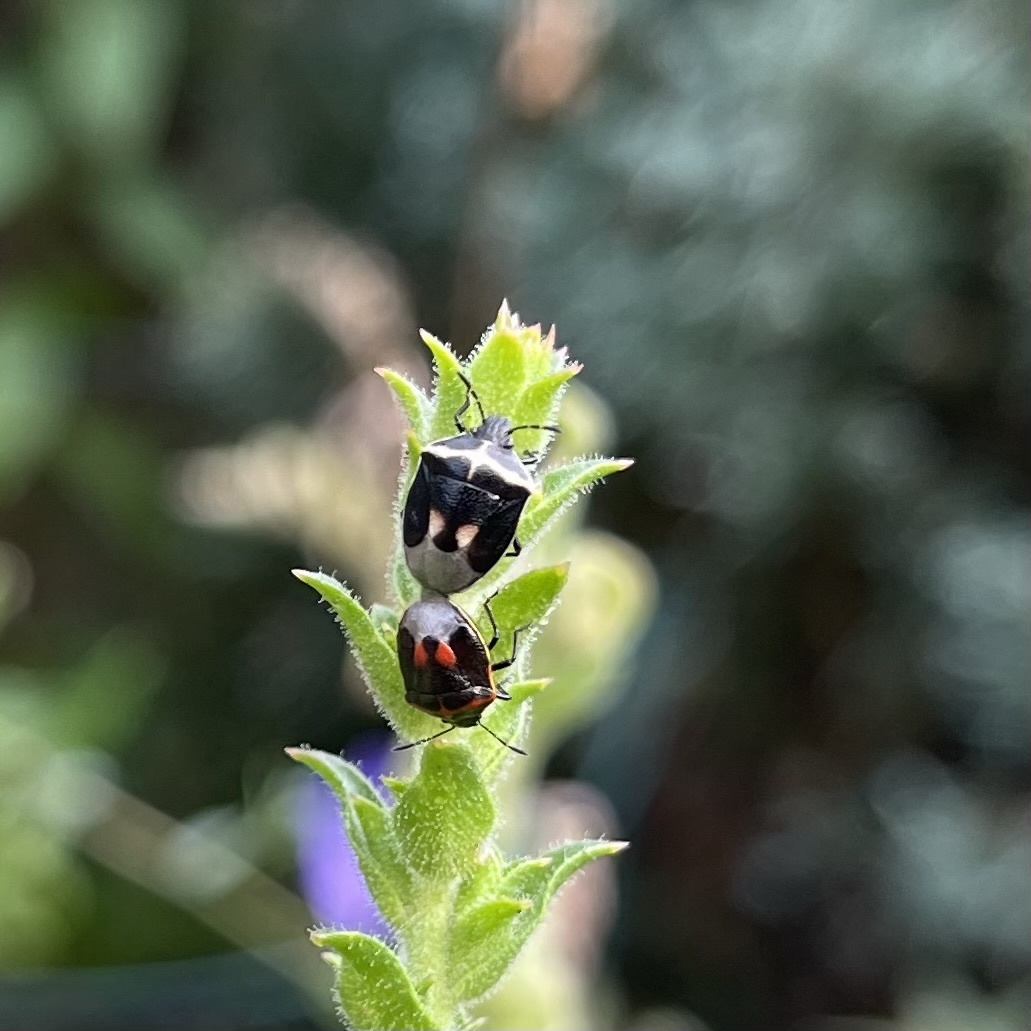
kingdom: Animalia
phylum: Arthropoda
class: Insecta
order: Hemiptera
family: Pentatomidae
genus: Cosmopepla
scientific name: Cosmopepla lintneriana
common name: Twice-stabbed stink bug
